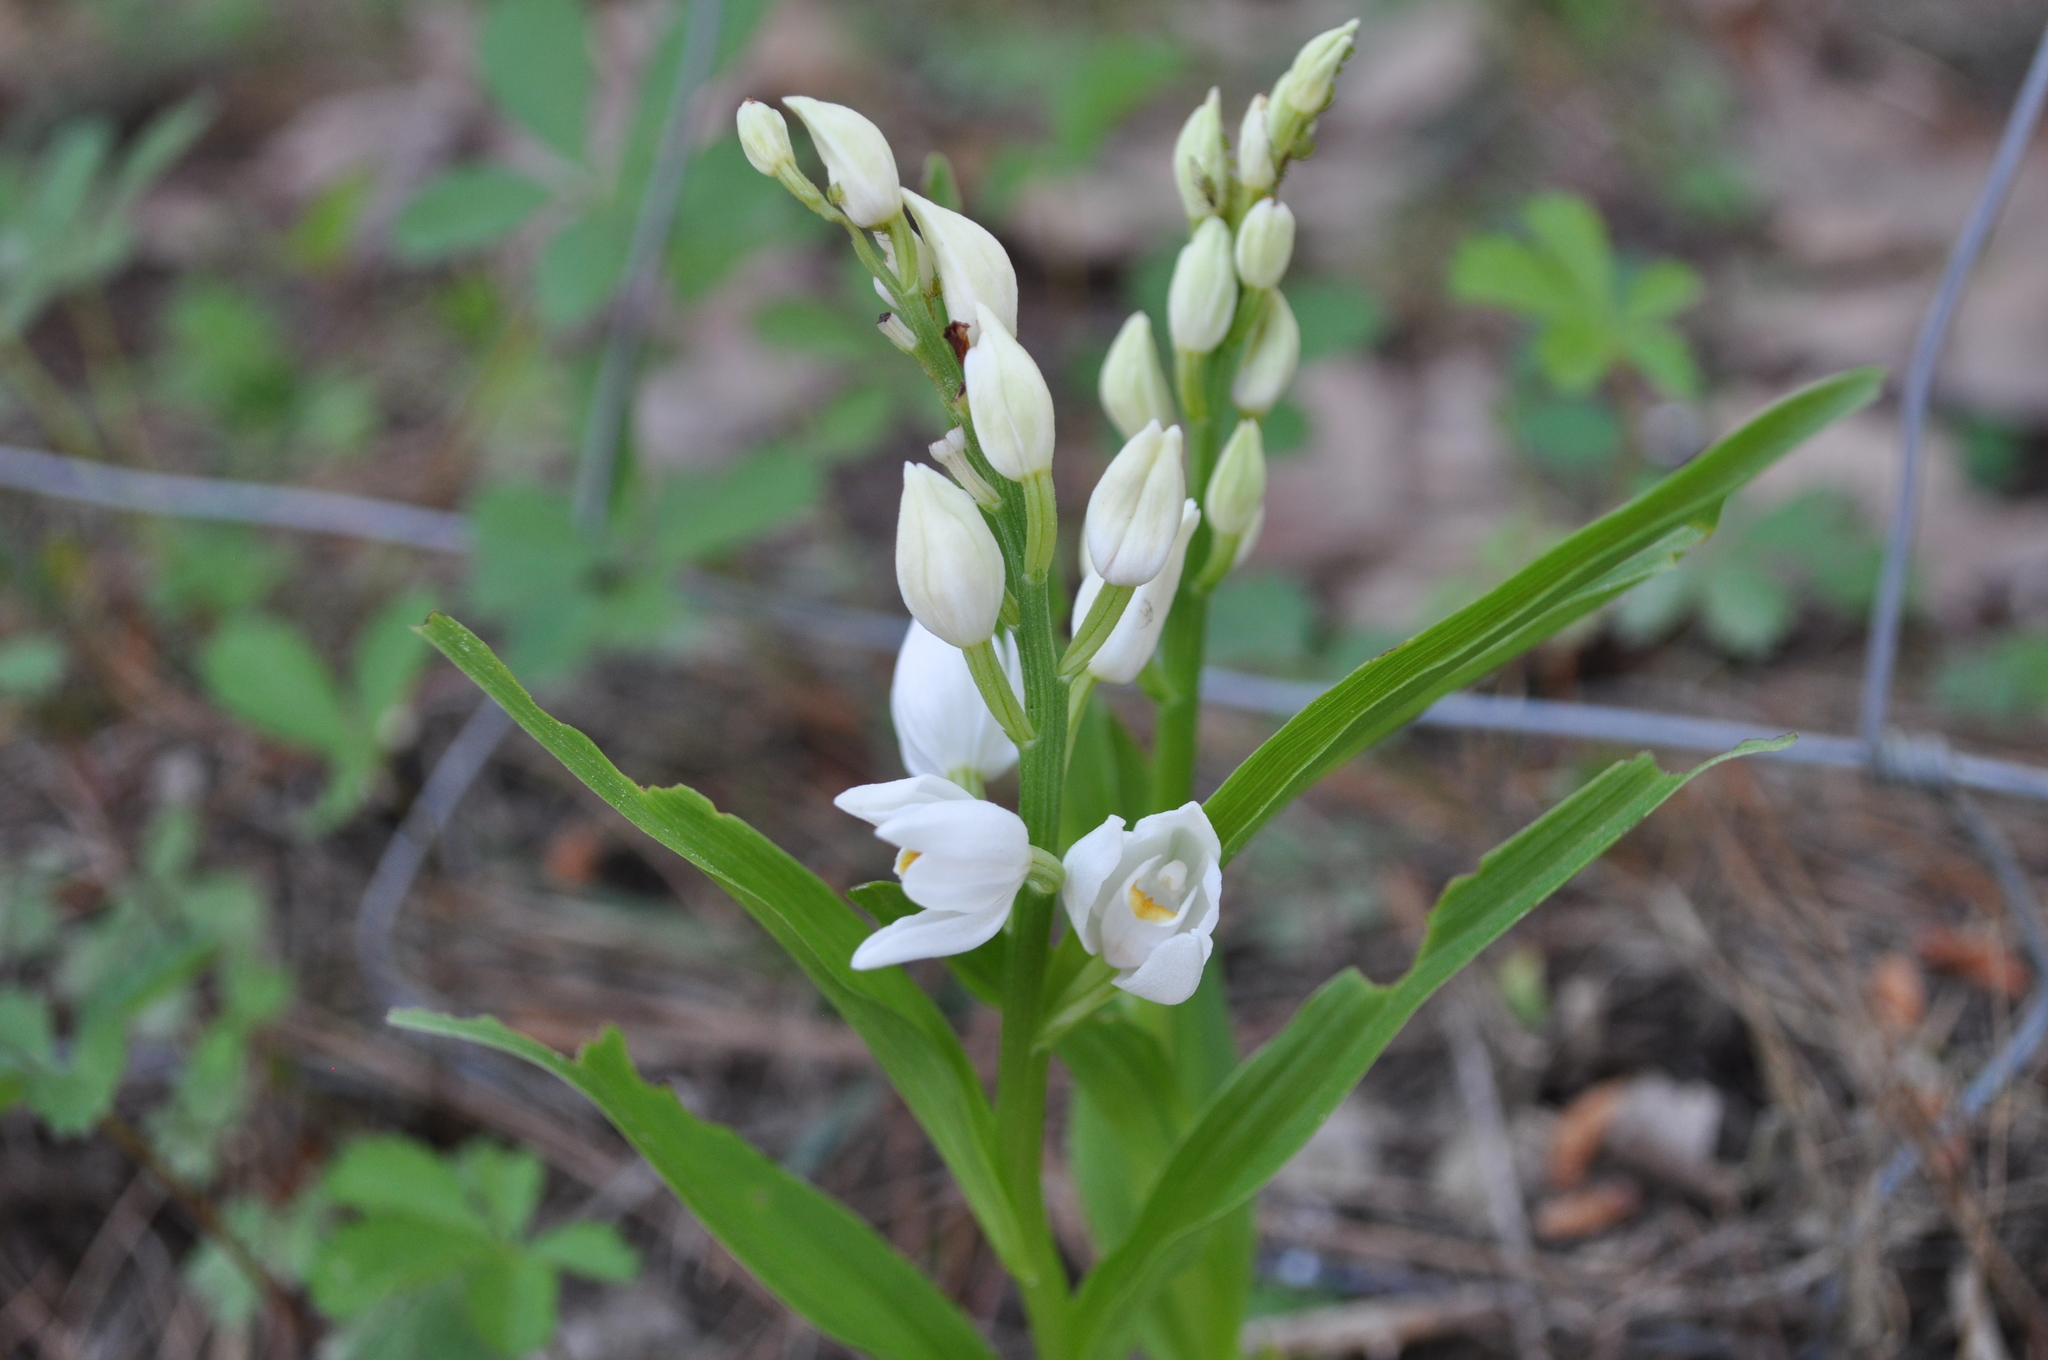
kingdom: Plantae
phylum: Tracheophyta
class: Liliopsida
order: Asparagales
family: Orchidaceae
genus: Cephalanthera
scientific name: Cephalanthera longifolia
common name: Narrow-leaved helleborine
